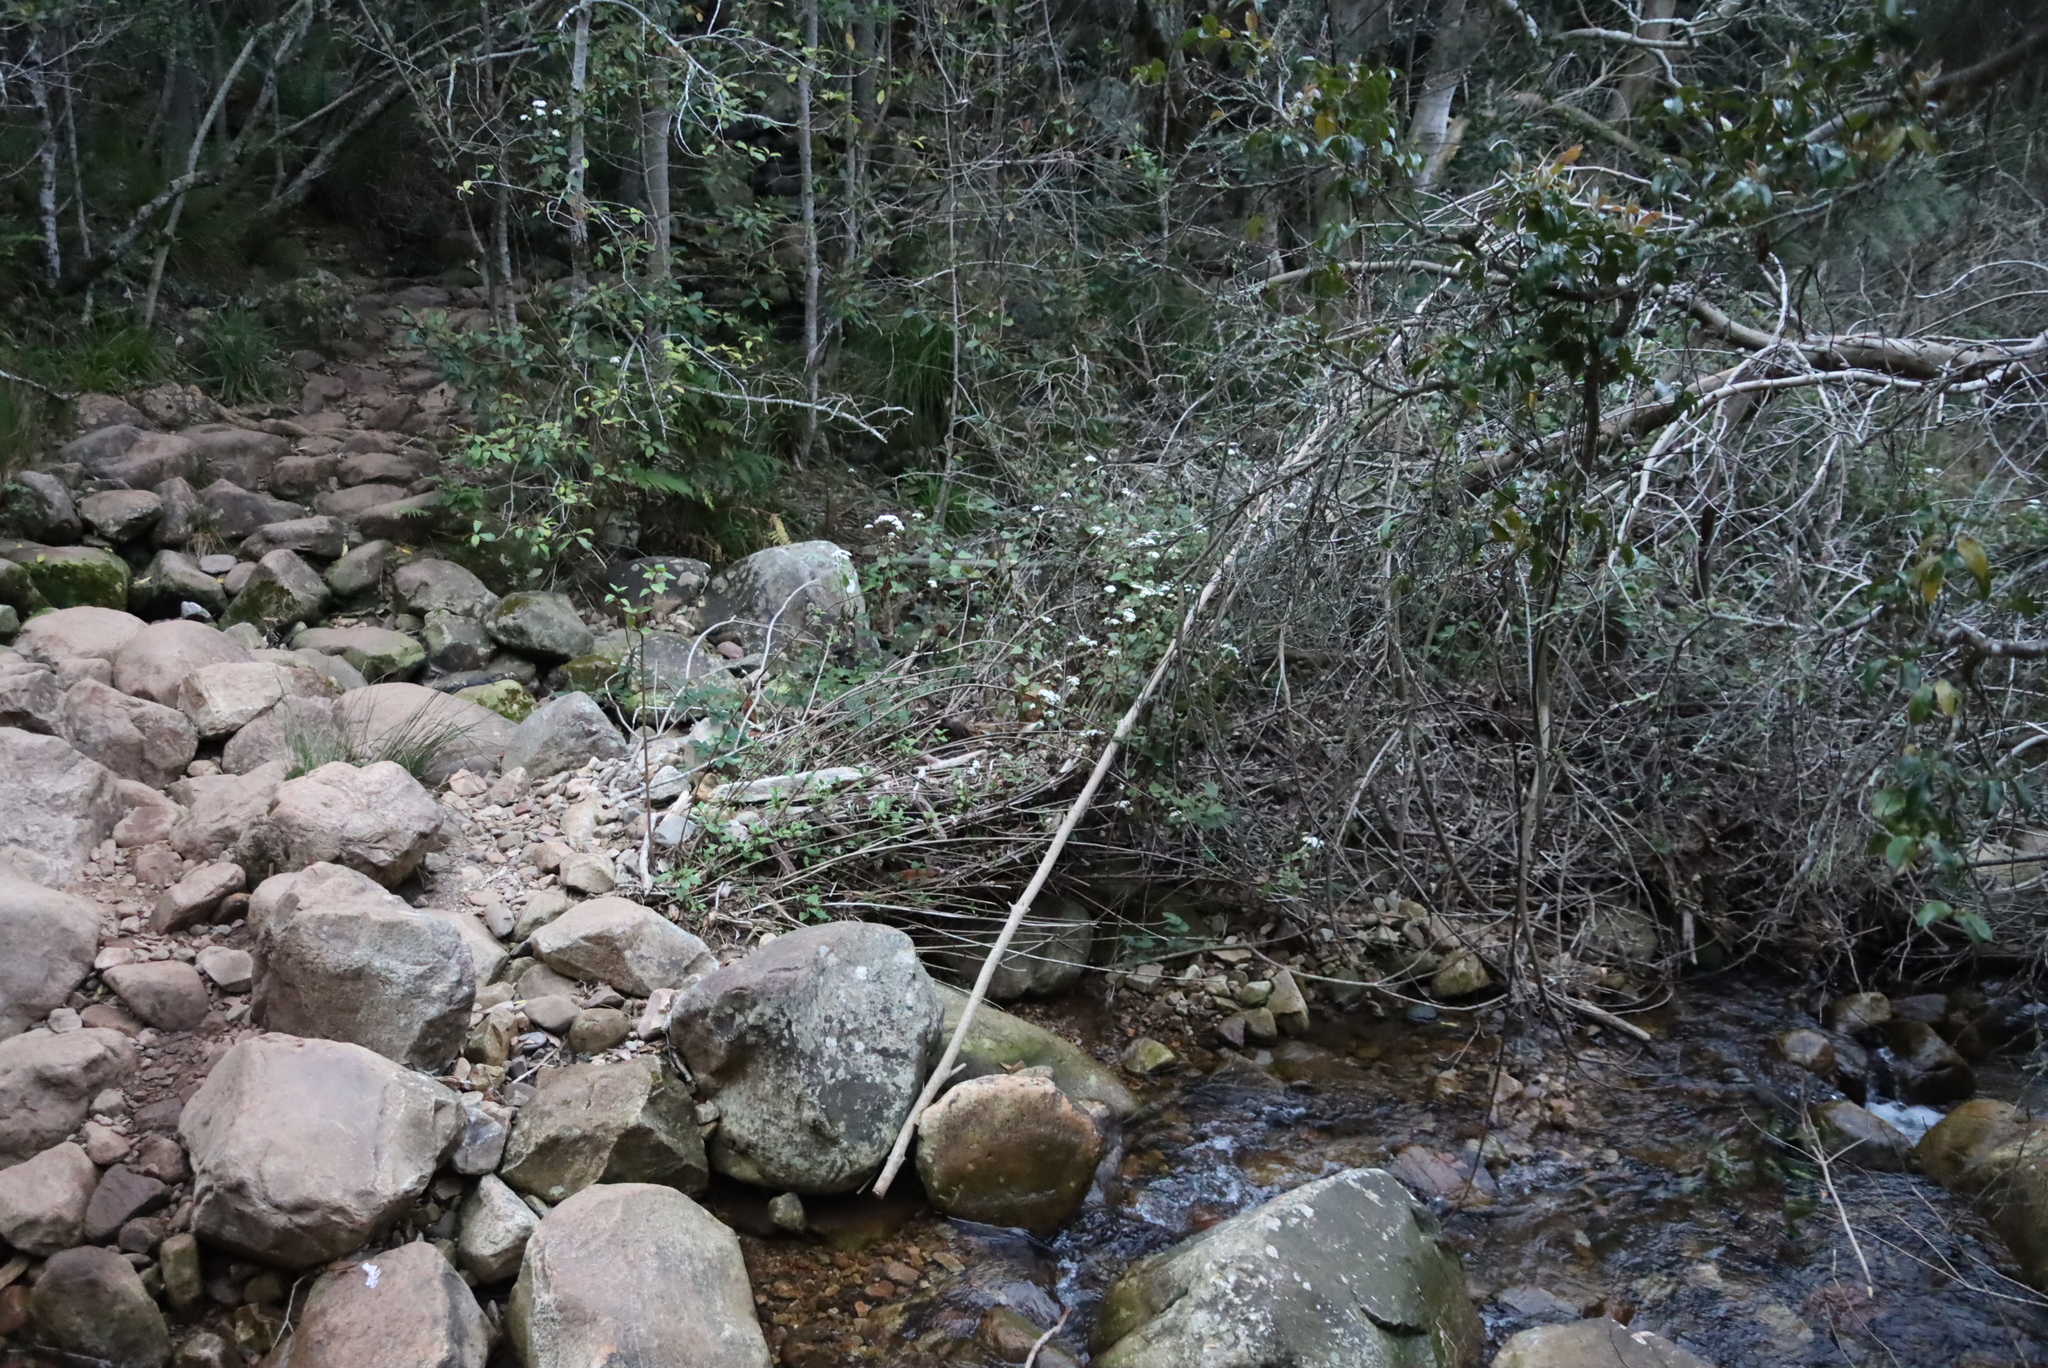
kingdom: Plantae
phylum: Tracheophyta
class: Magnoliopsida
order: Asterales
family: Asteraceae
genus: Ageratina
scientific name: Ageratina adenophora
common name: Sticky snakeroot
